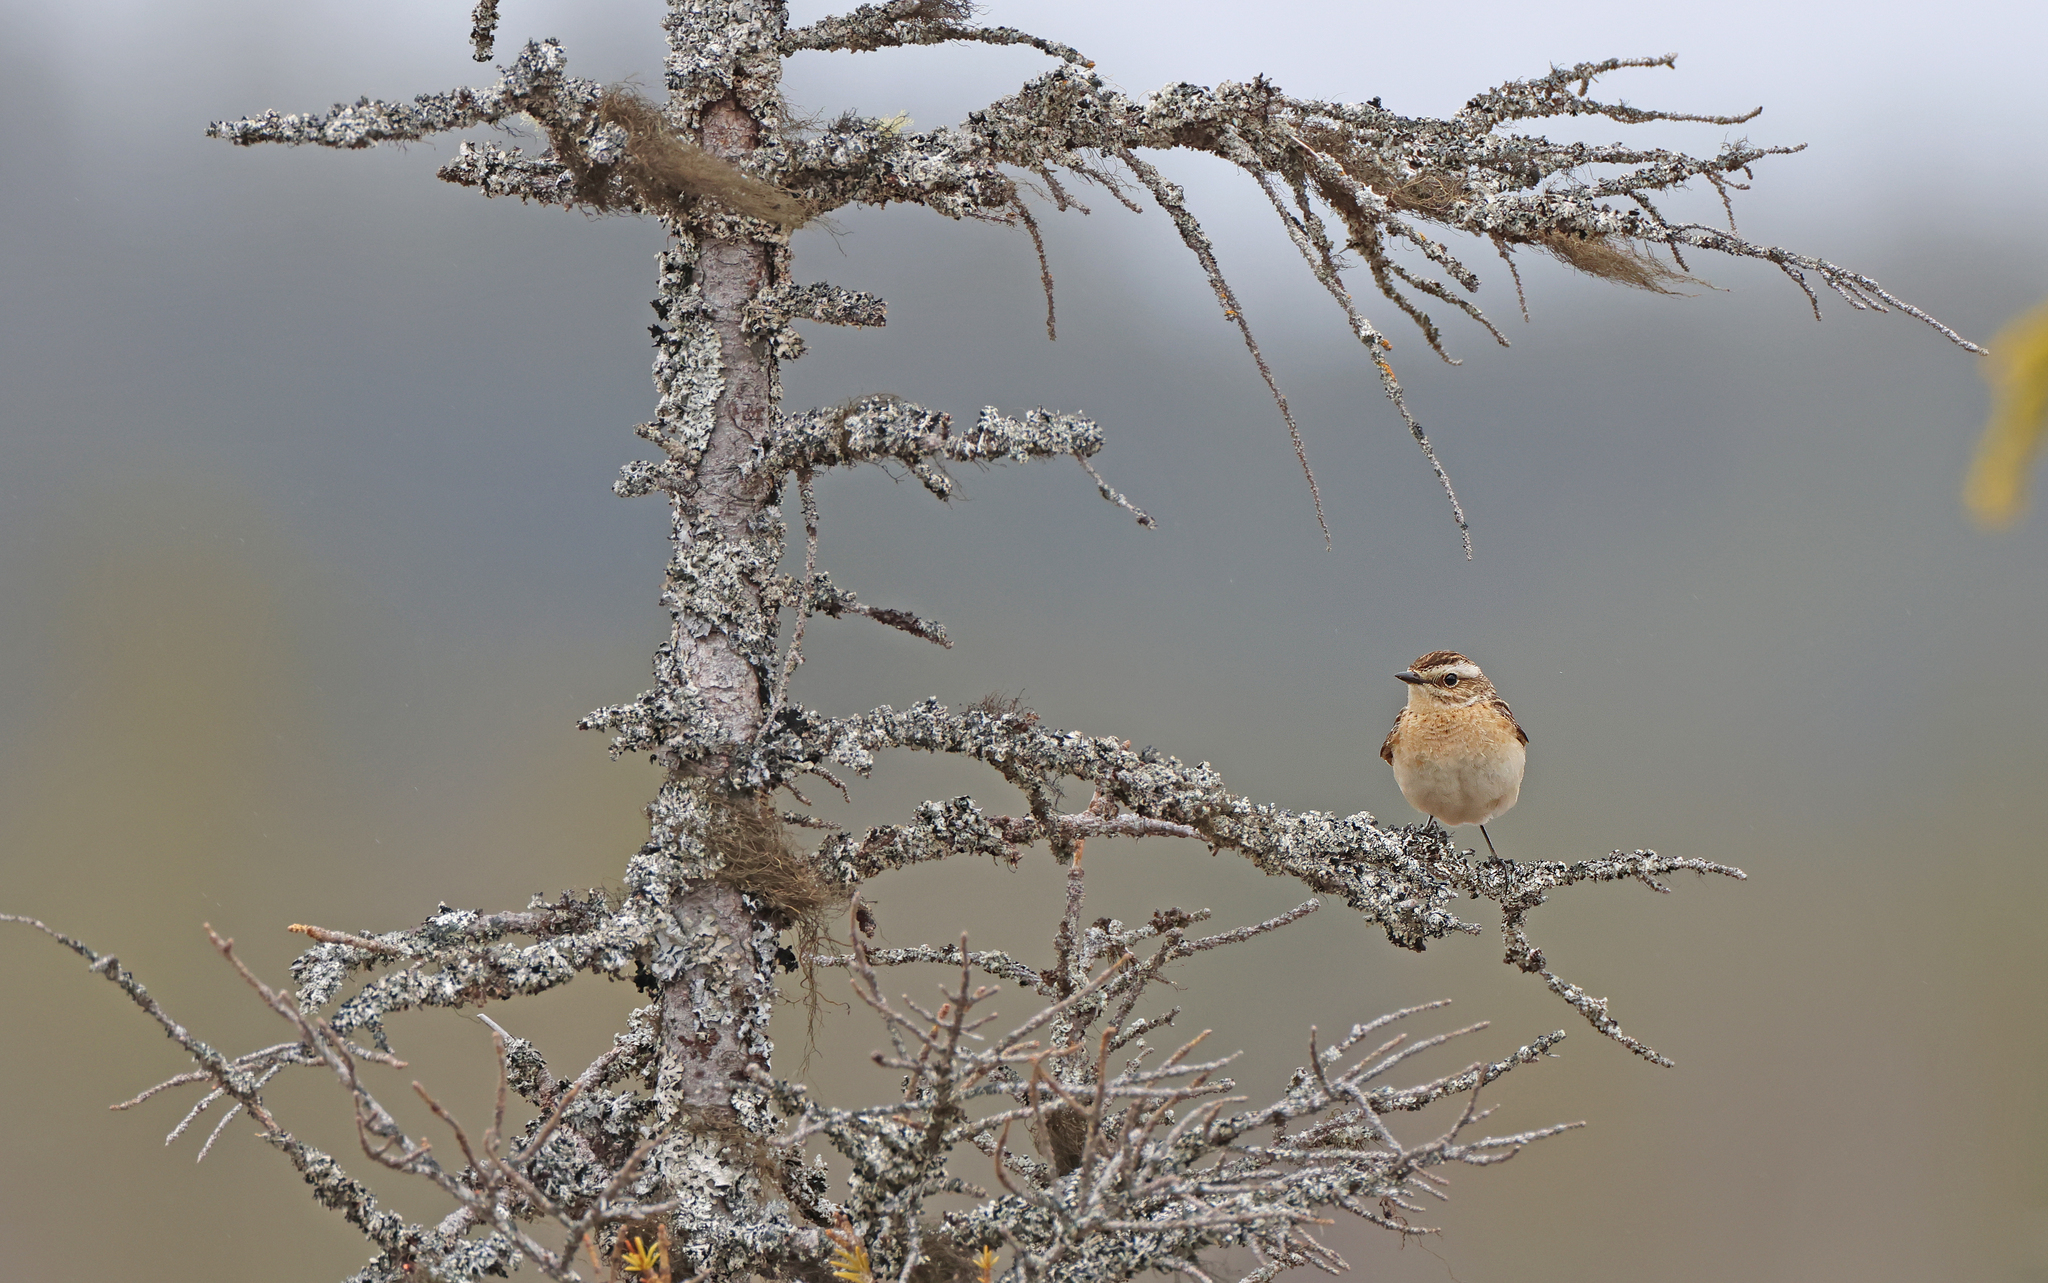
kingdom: Animalia
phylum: Chordata
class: Aves
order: Passeriformes
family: Muscicapidae
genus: Saxicola
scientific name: Saxicola rubetra
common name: Whinchat
